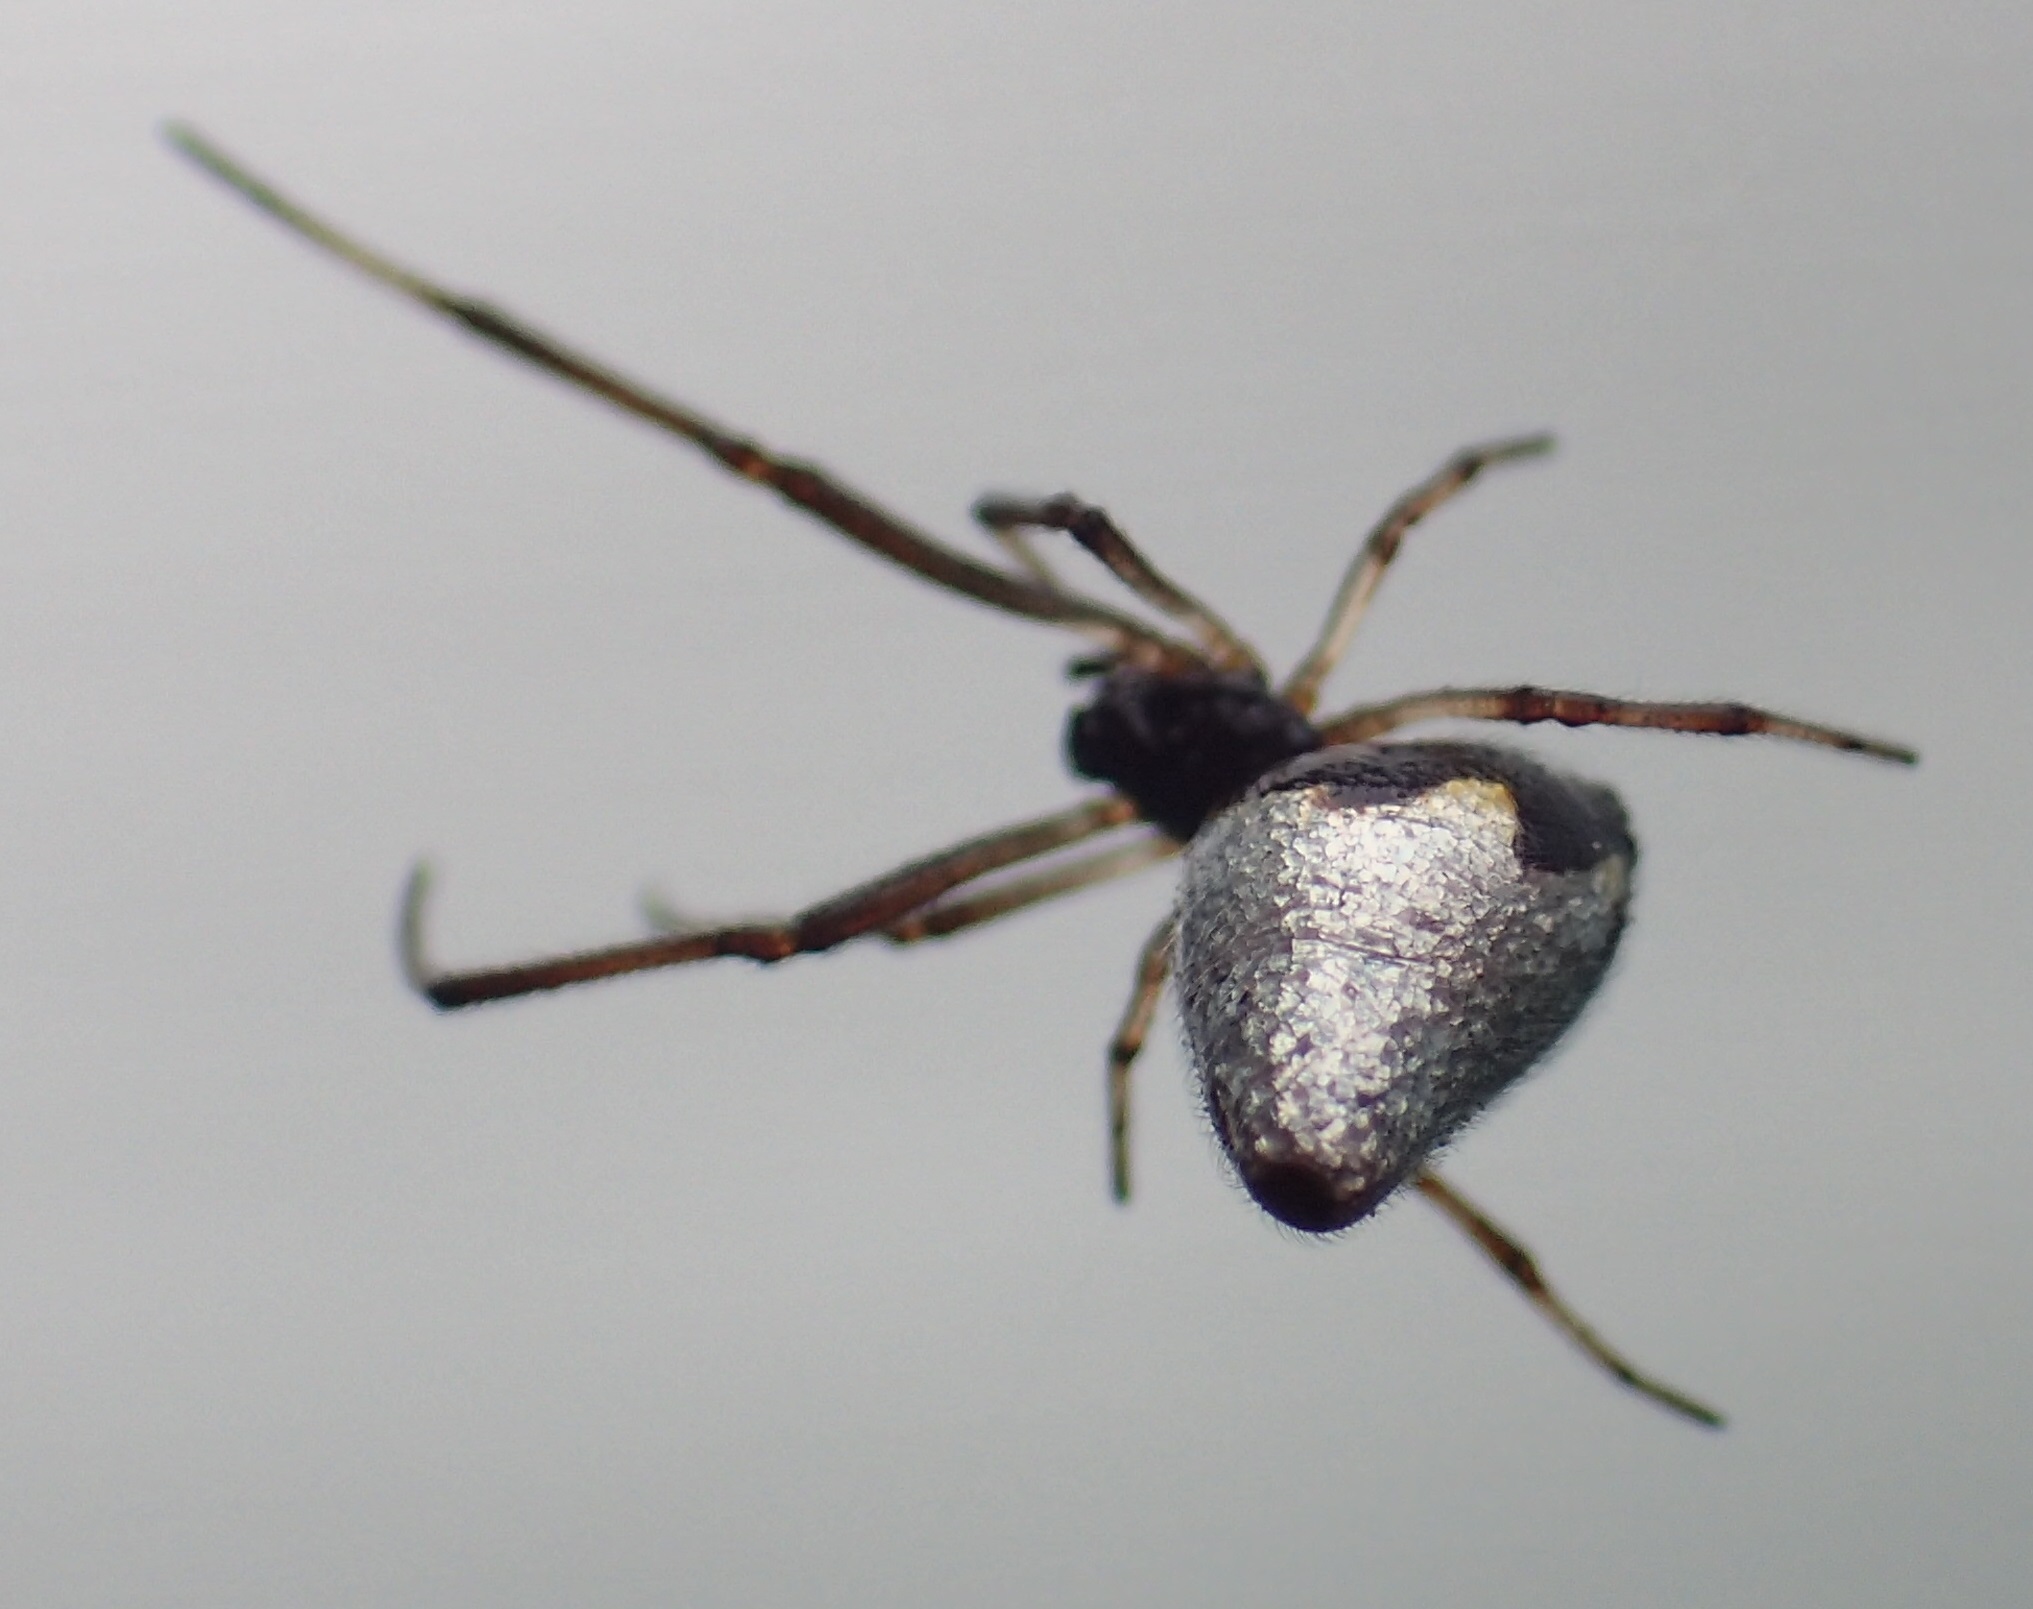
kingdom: Animalia
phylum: Arthropoda
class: Arachnida
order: Araneae
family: Theridiidae
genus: Argyrodes
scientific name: Argyrodes antipodianus
